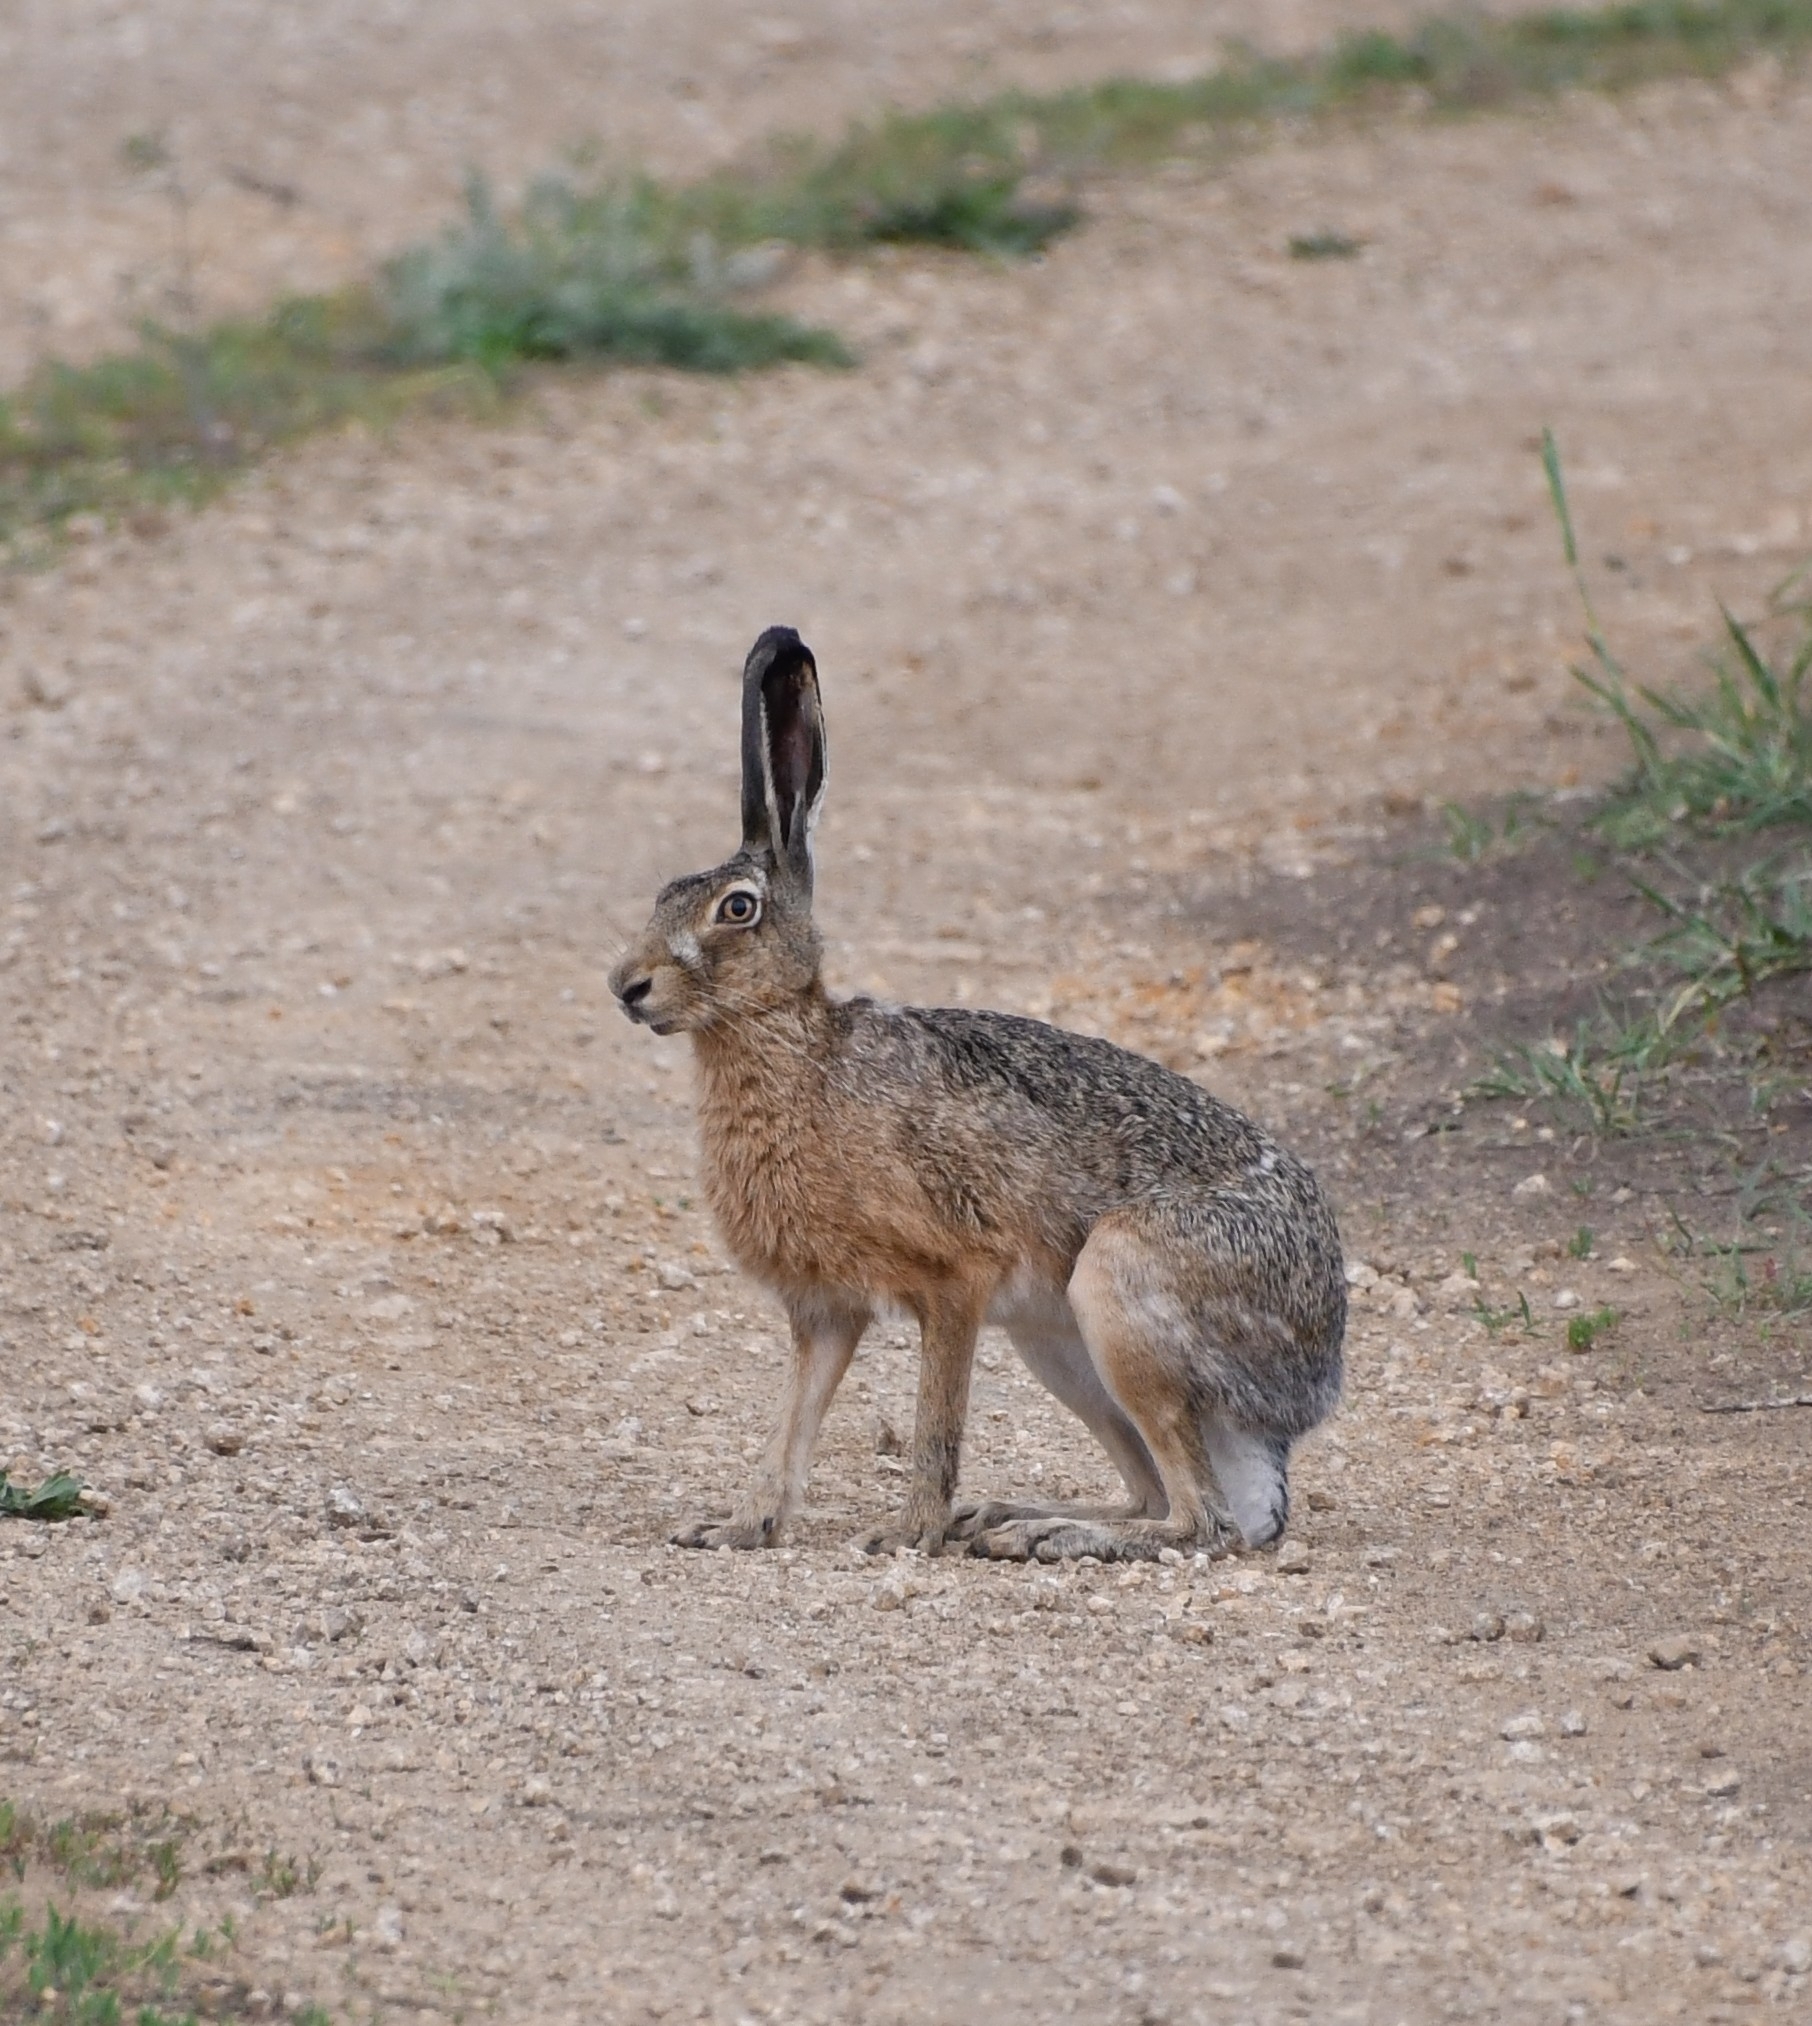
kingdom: Animalia
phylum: Chordata
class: Mammalia
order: Lagomorpha
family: Leporidae
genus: Lepus
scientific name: Lepus europaeus
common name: European hare
